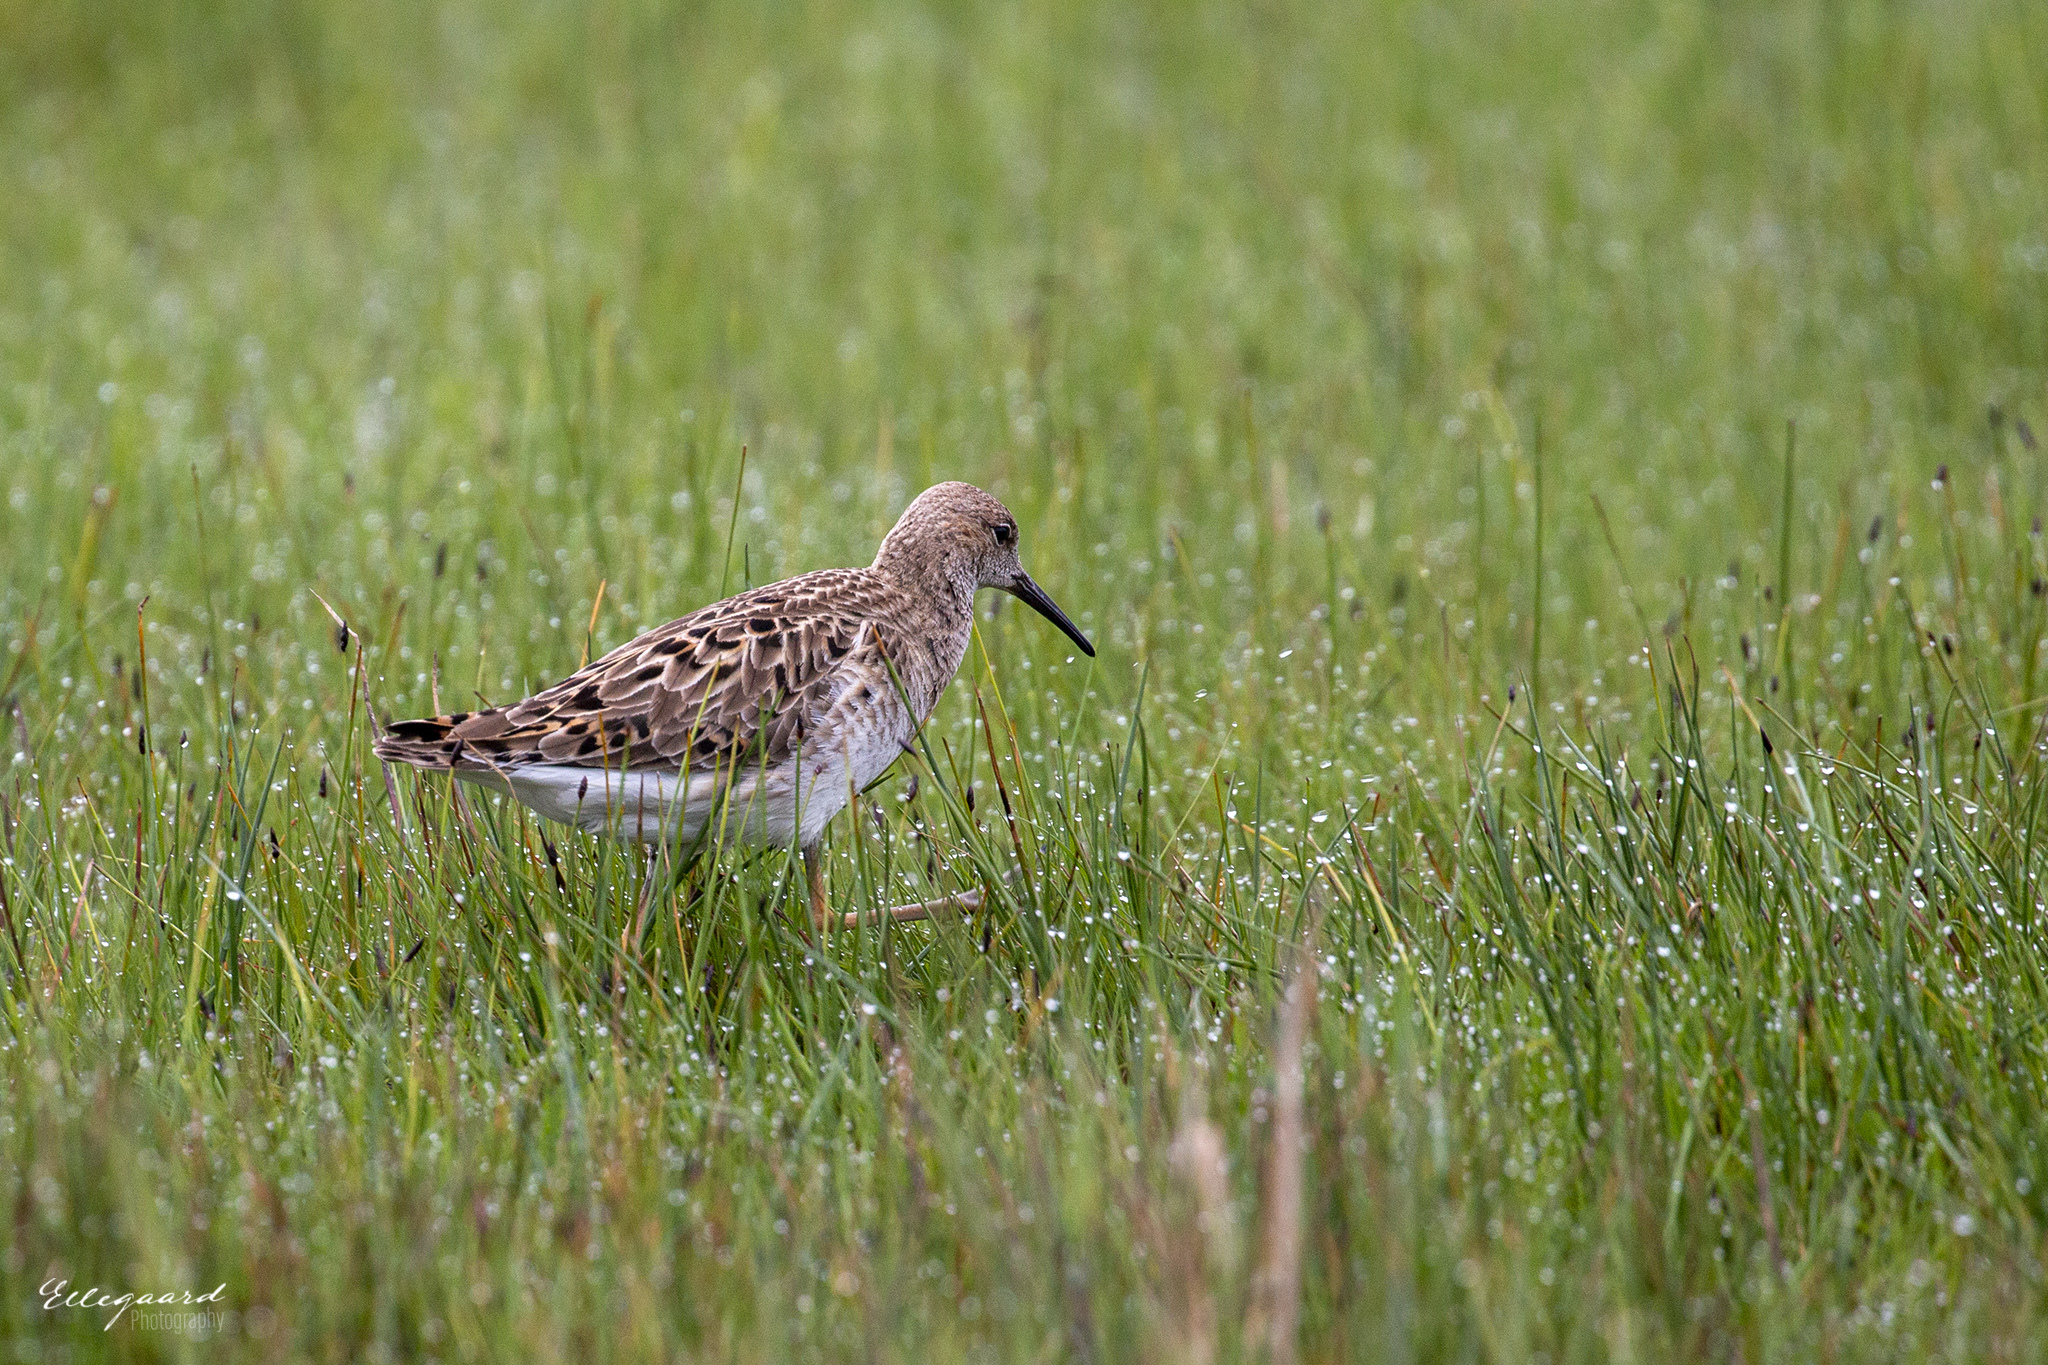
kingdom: Animalia
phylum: Chordata
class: Aves
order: Charadriiformes
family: Scolopacidae
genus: Calidris
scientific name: Calidris pugnax
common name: Ruff
